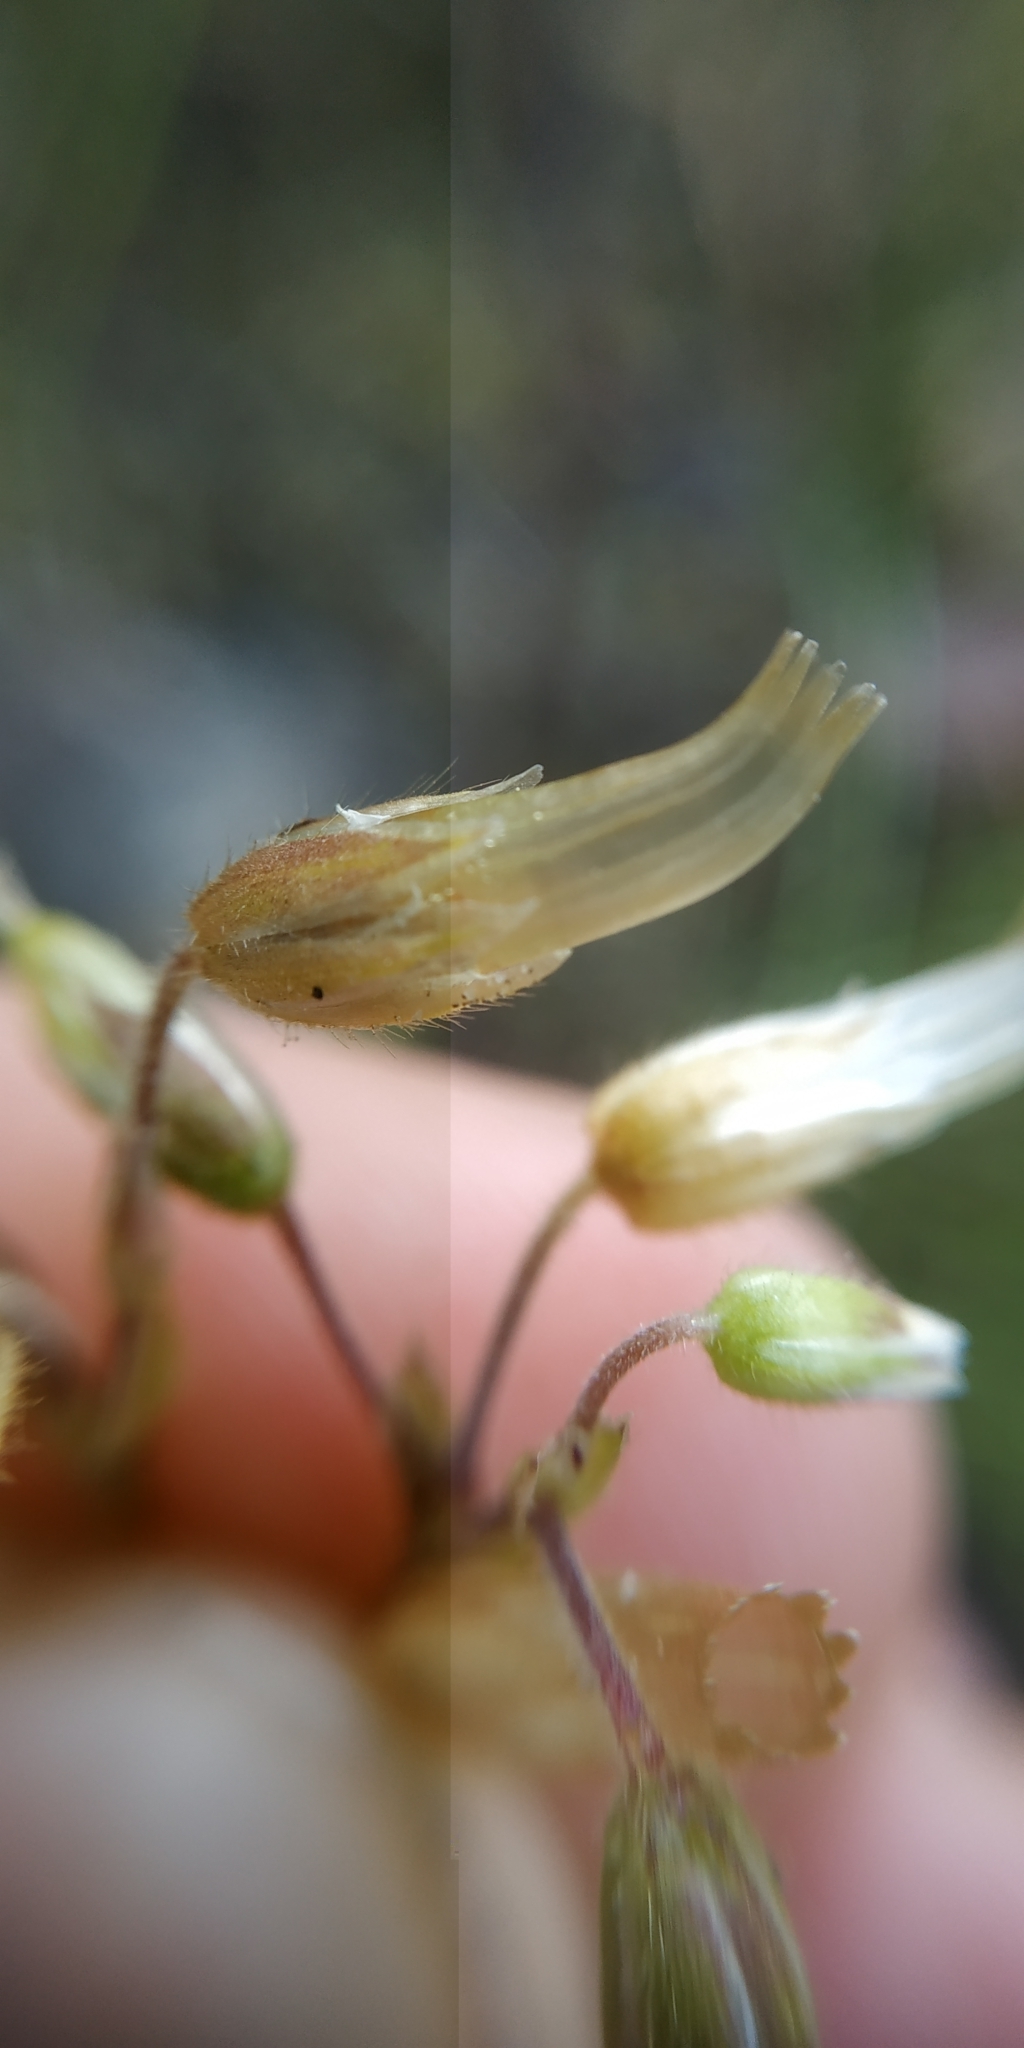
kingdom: Plantae
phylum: Tracheophyta
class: Magnoliopsida
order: Caryophyllales
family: Caryophyllaceae
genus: Cerastium
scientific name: Cerastium holosteoides
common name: Big chickweed
